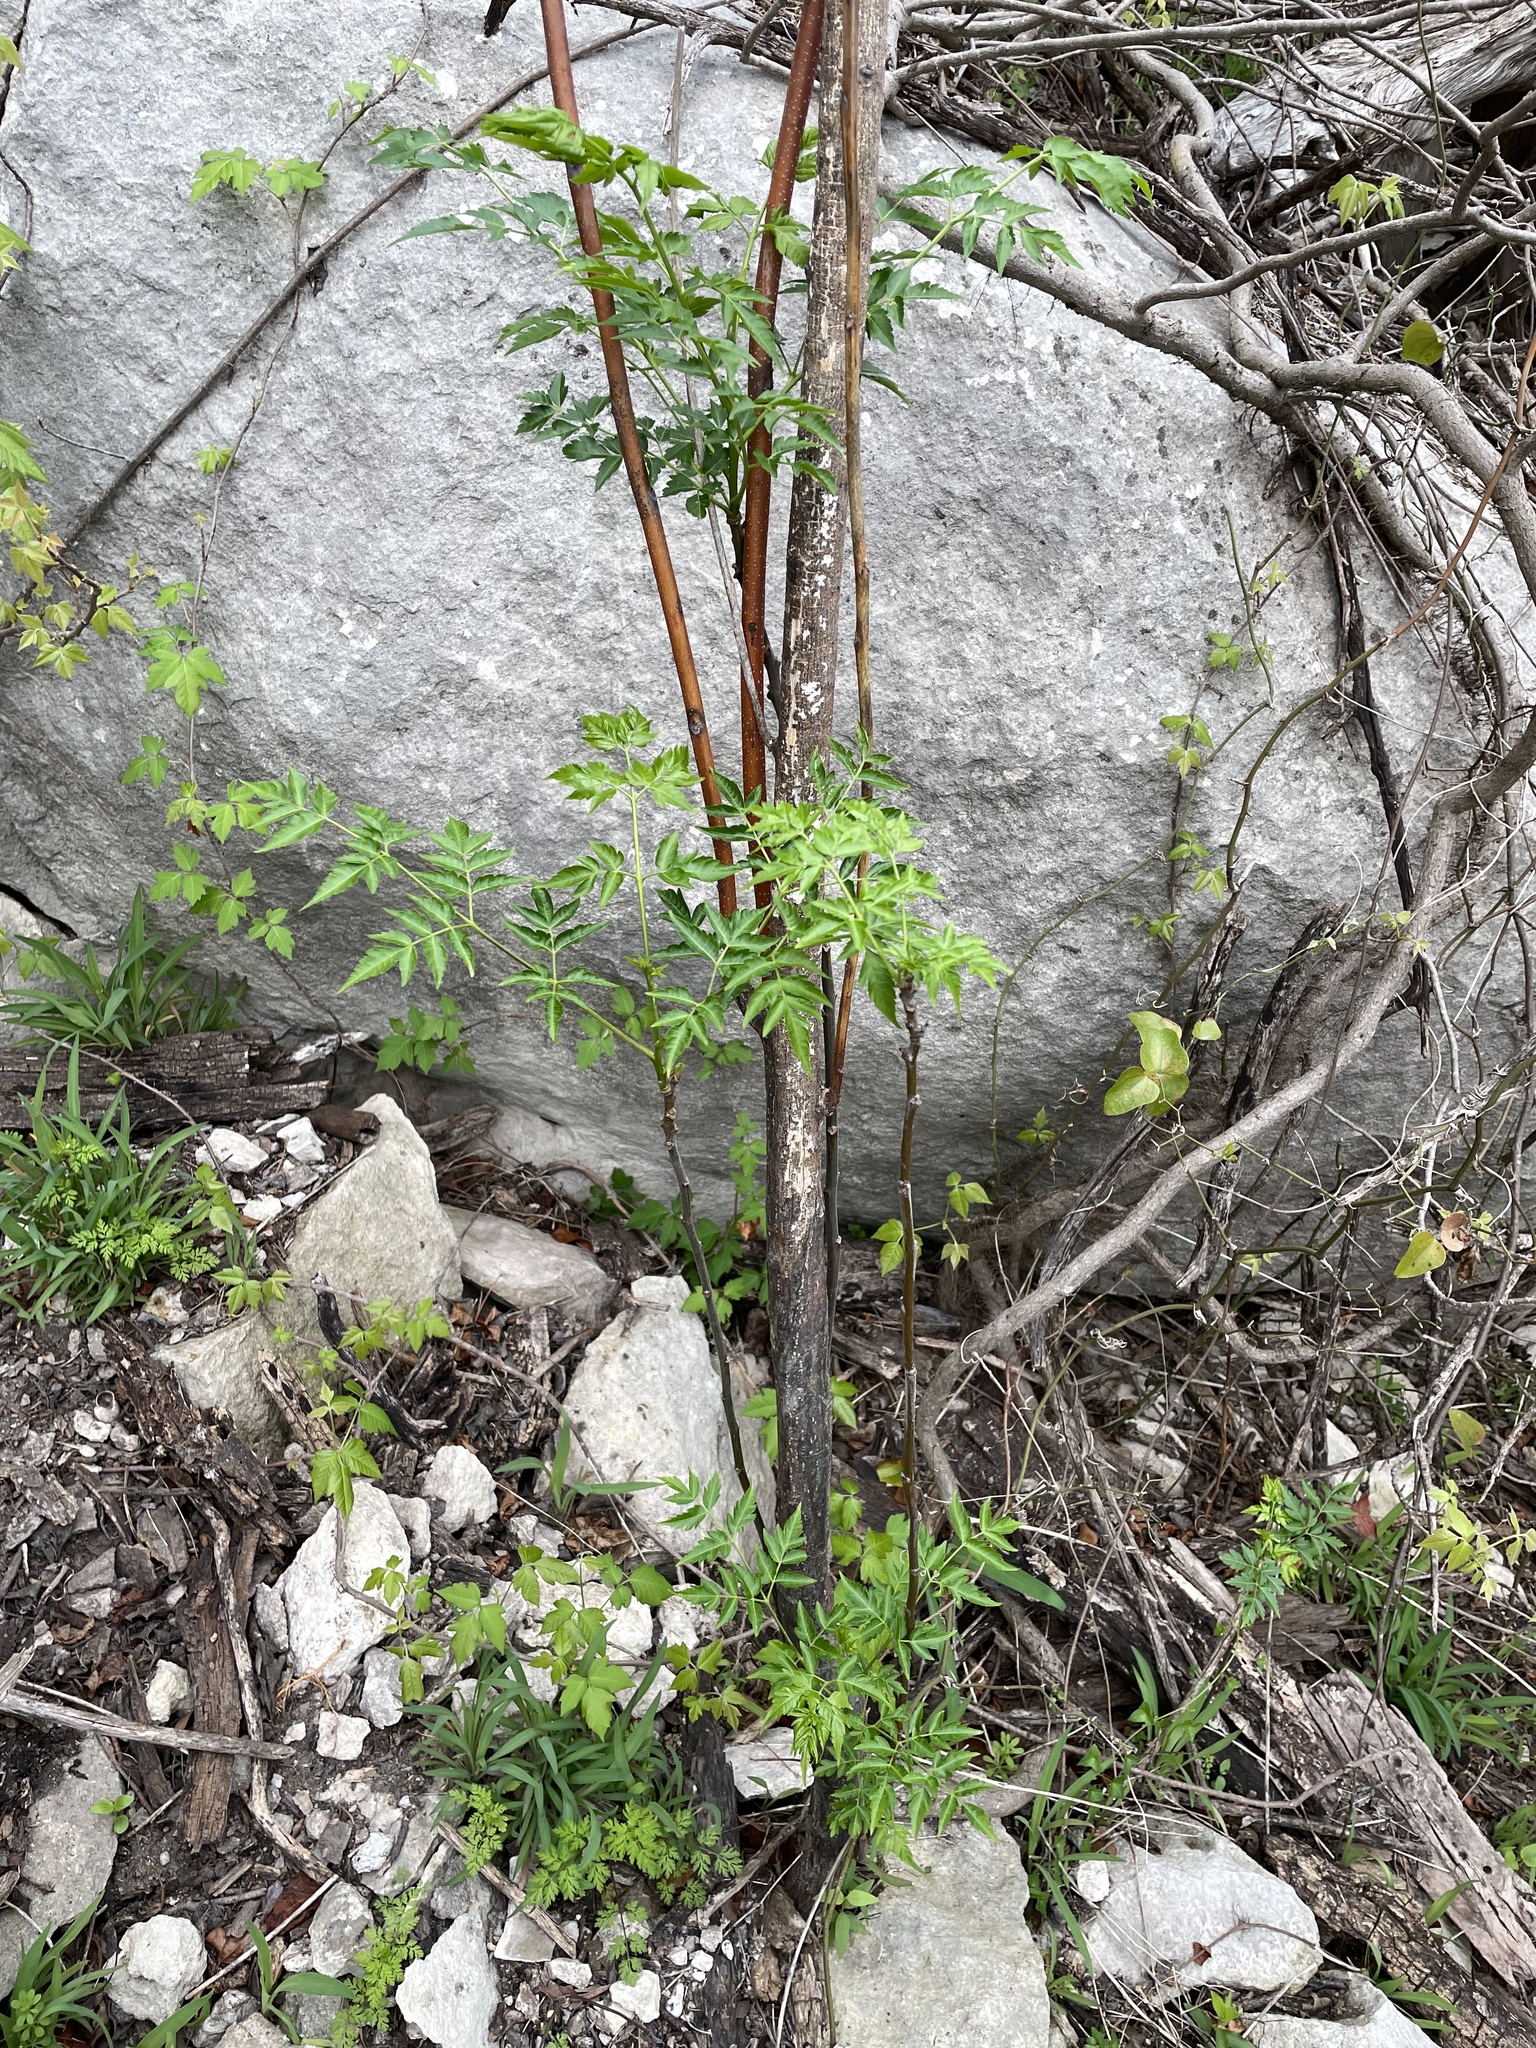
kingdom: Plantae
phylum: Tracheophyta
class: Magnoliopsida
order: Sapindales
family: Meliaceae
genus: Melia
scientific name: Melia azedarach
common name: Chinaberrytree
